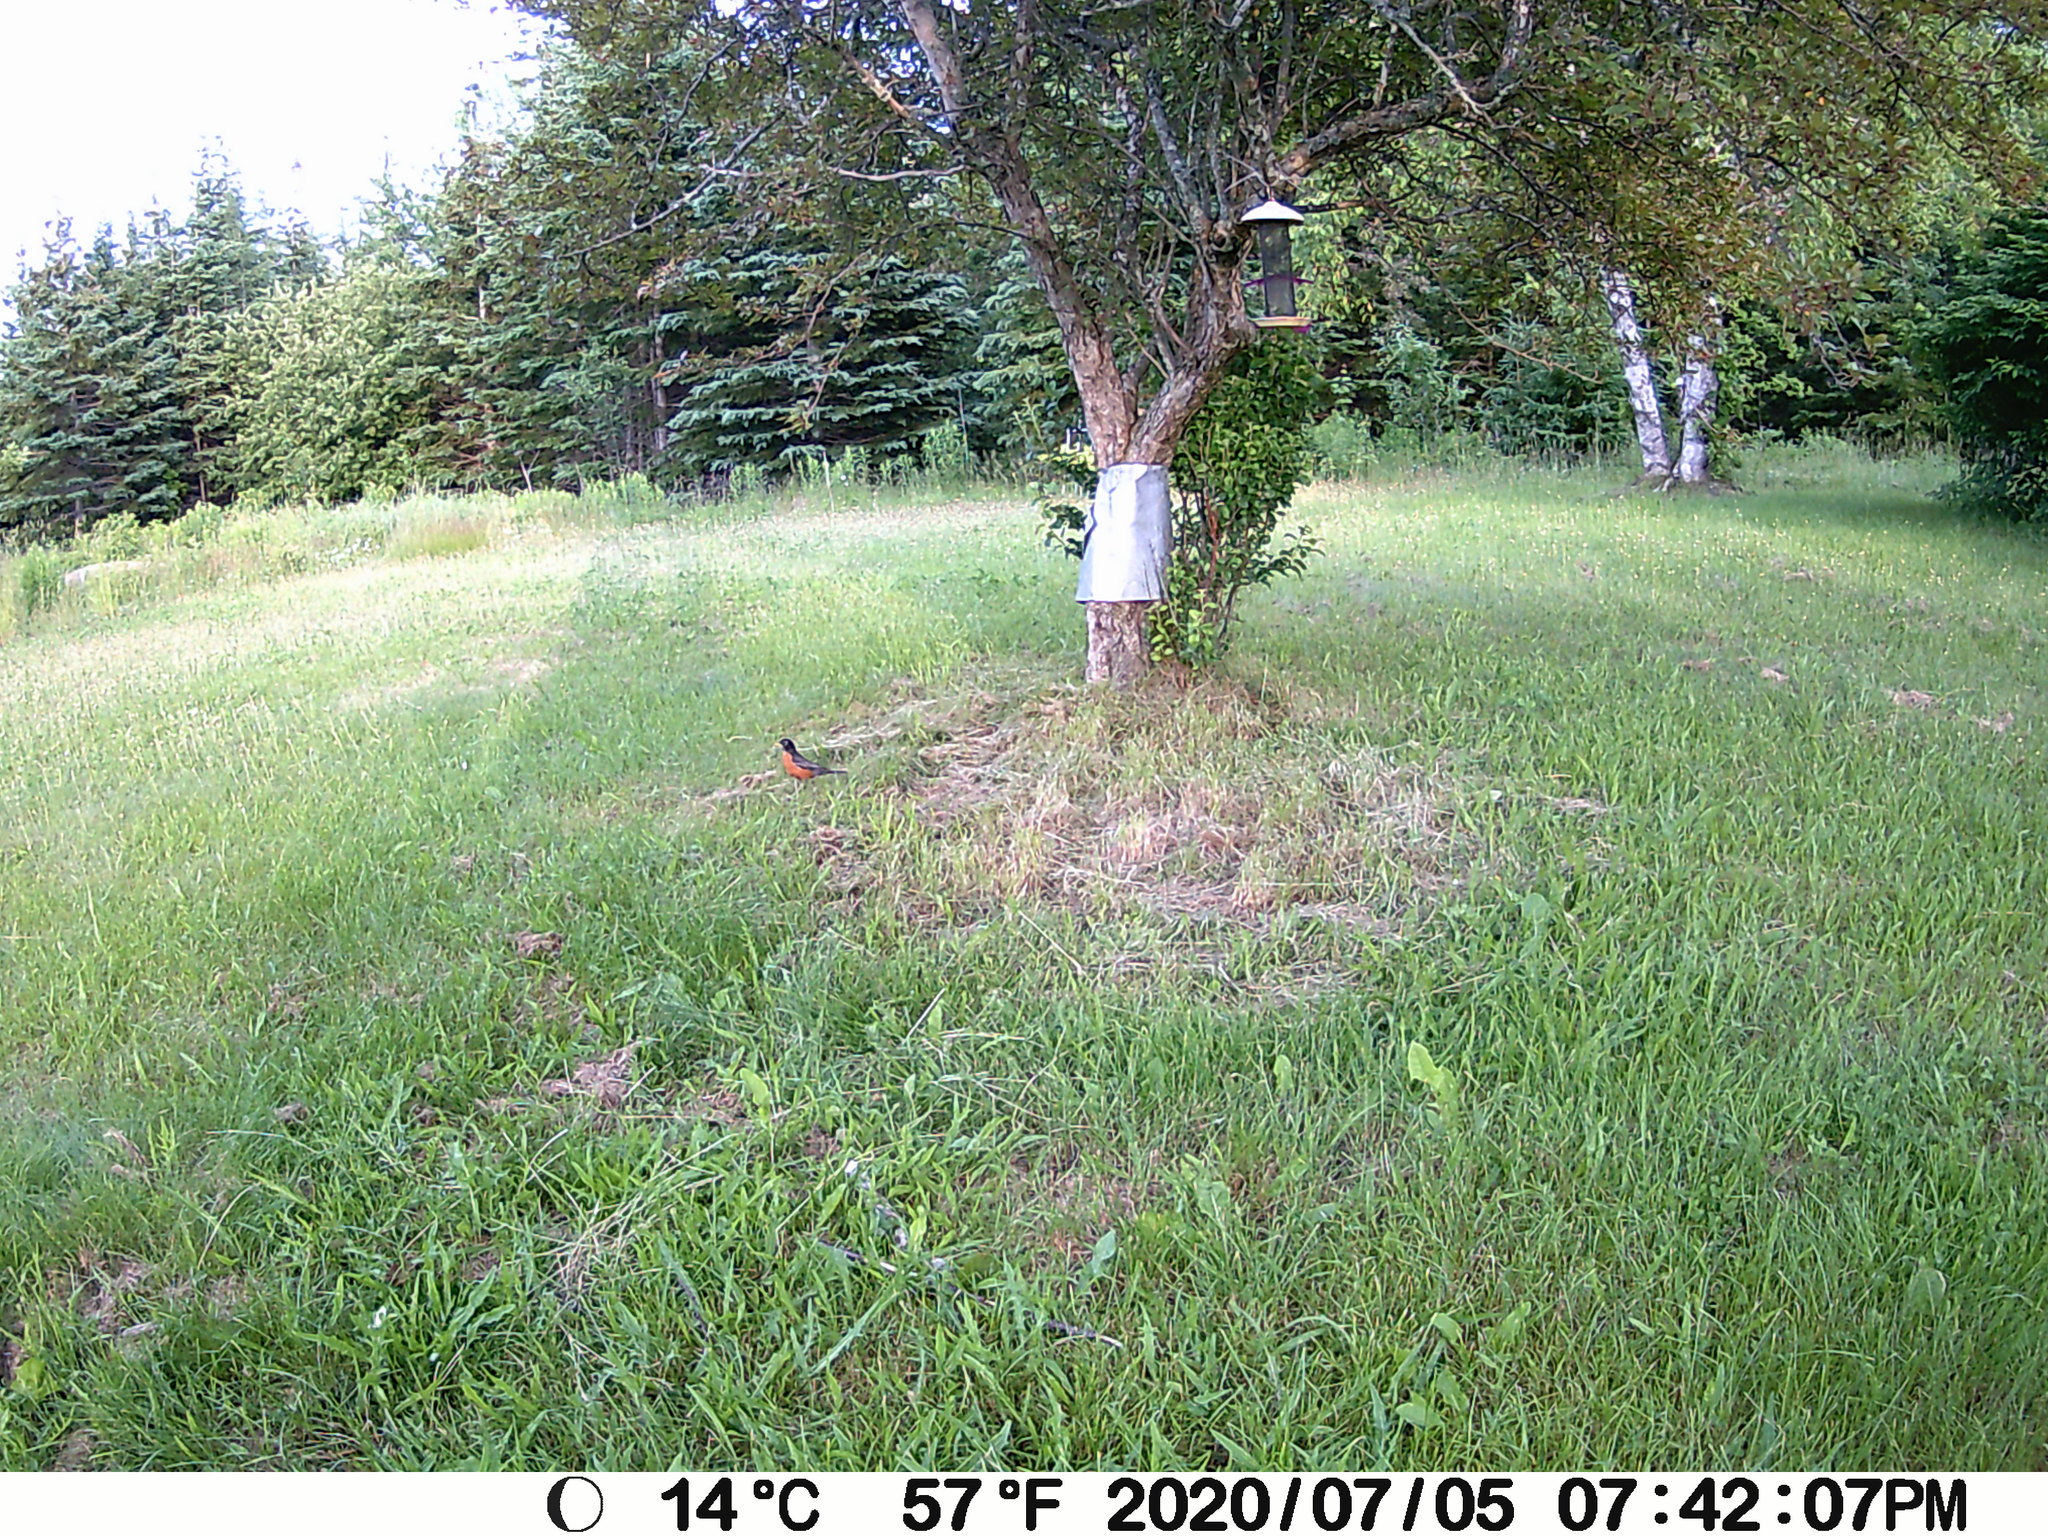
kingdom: Animalia
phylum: Chordata
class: Aves
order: Passeriformes
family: Turdidae
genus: Turdus
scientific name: Turdus migratorius
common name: American robin
